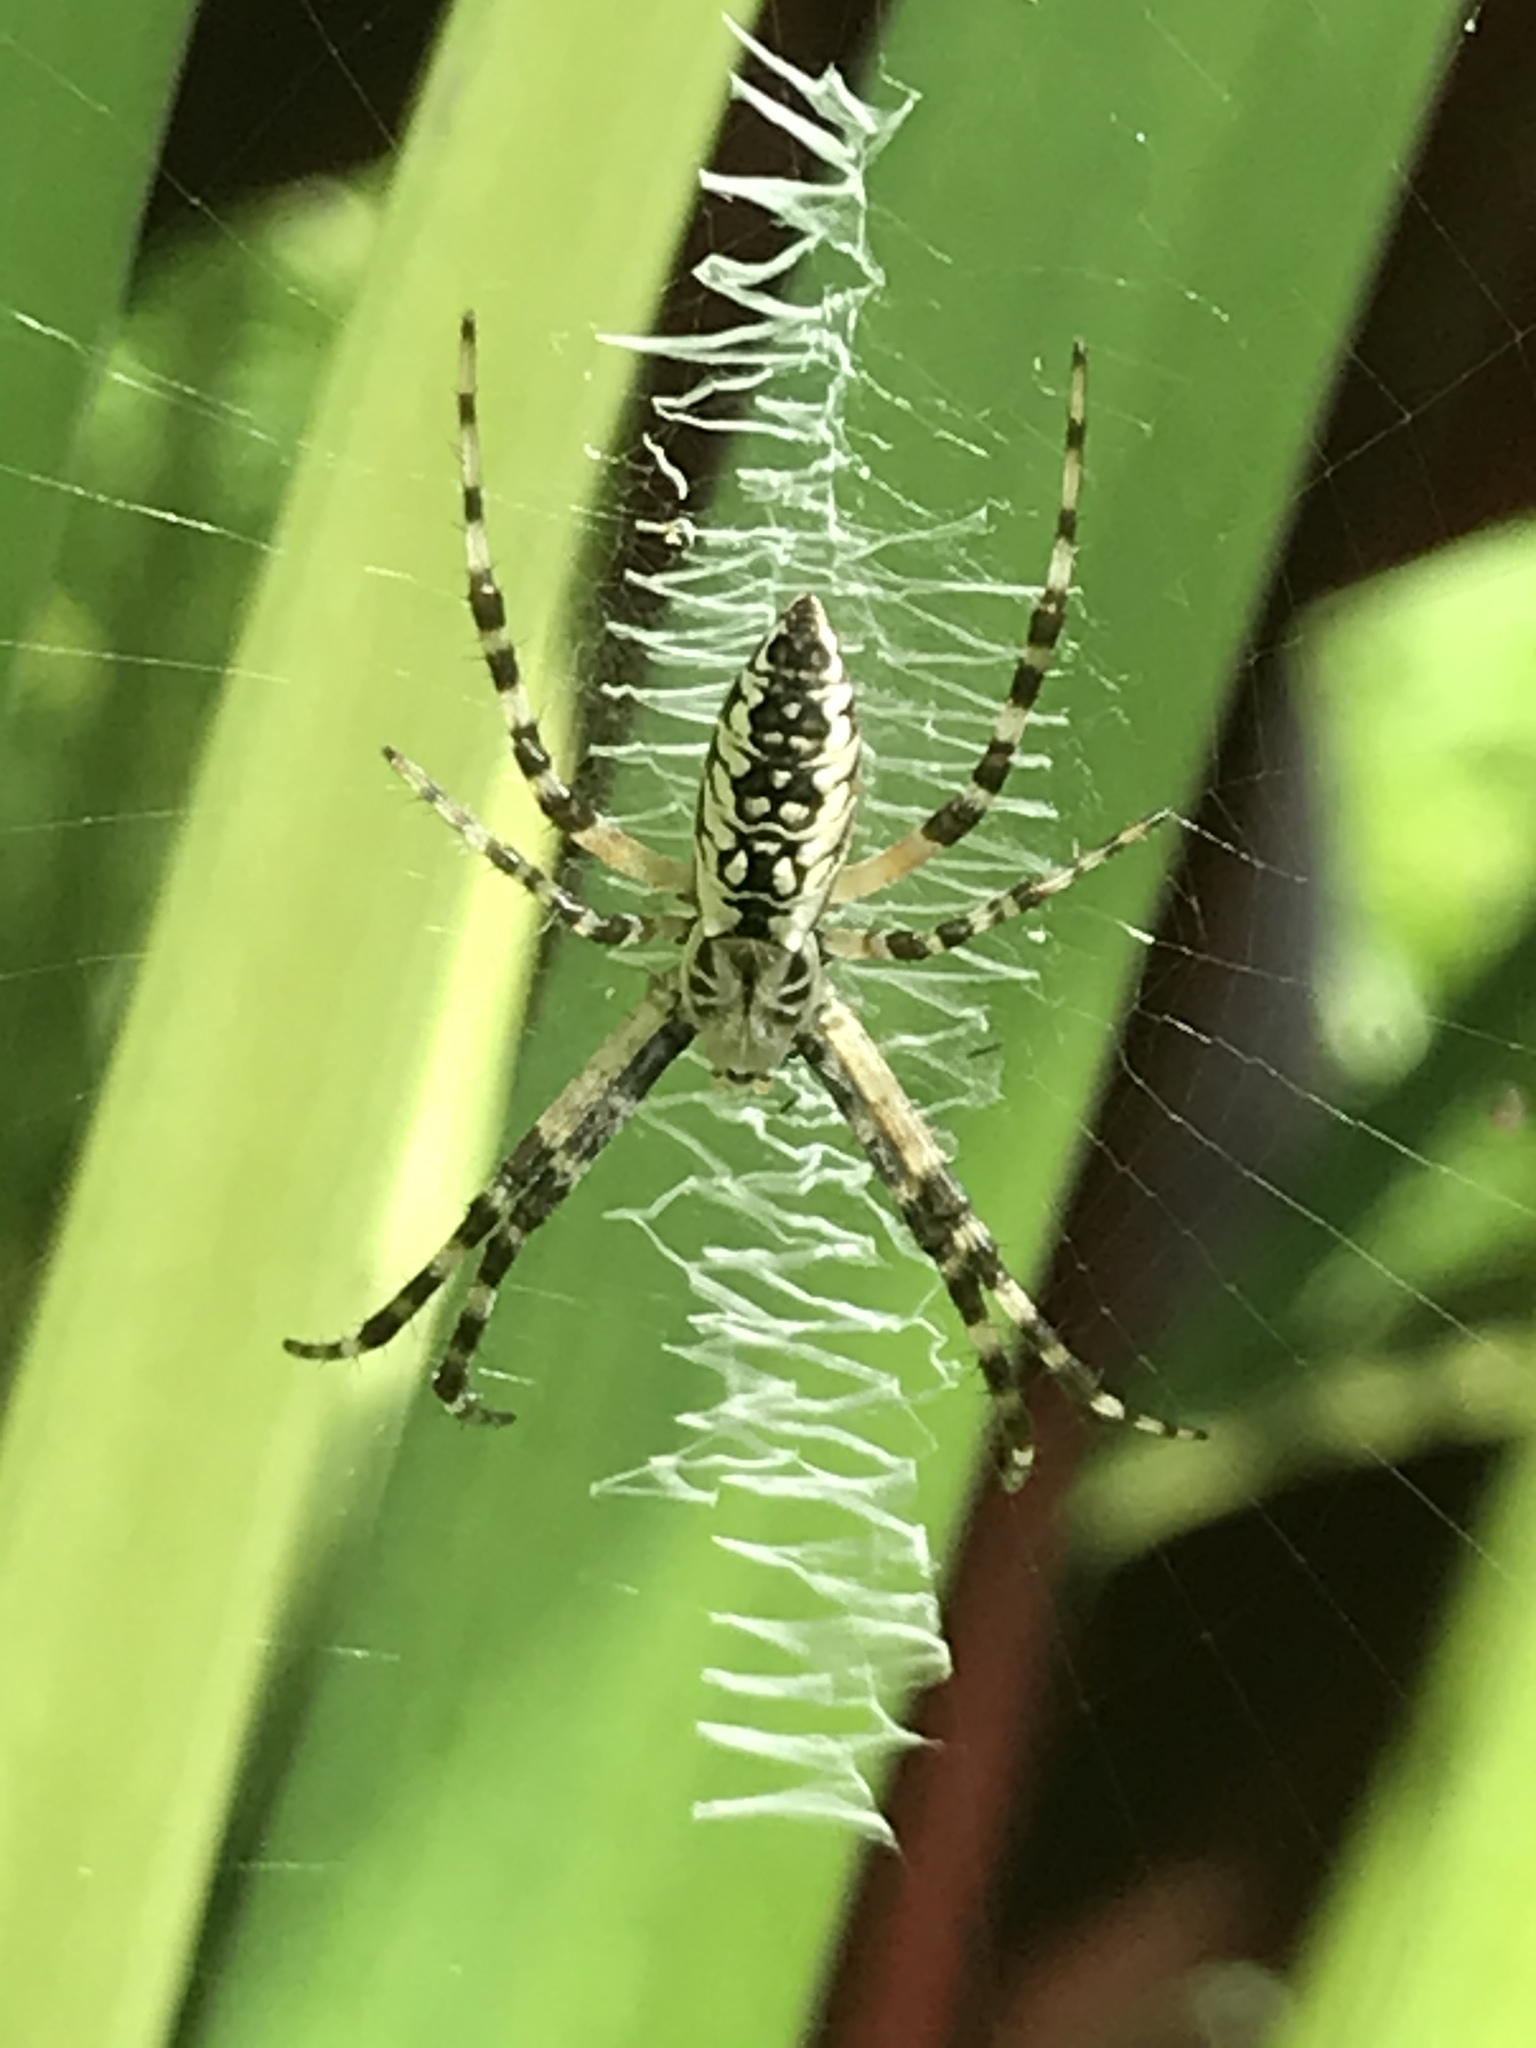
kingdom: Animalia
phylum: Arthropoda
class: Arachnida
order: Araneae
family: Araneidae
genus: Argiope
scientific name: Argiope aurantia
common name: Orb weavers
